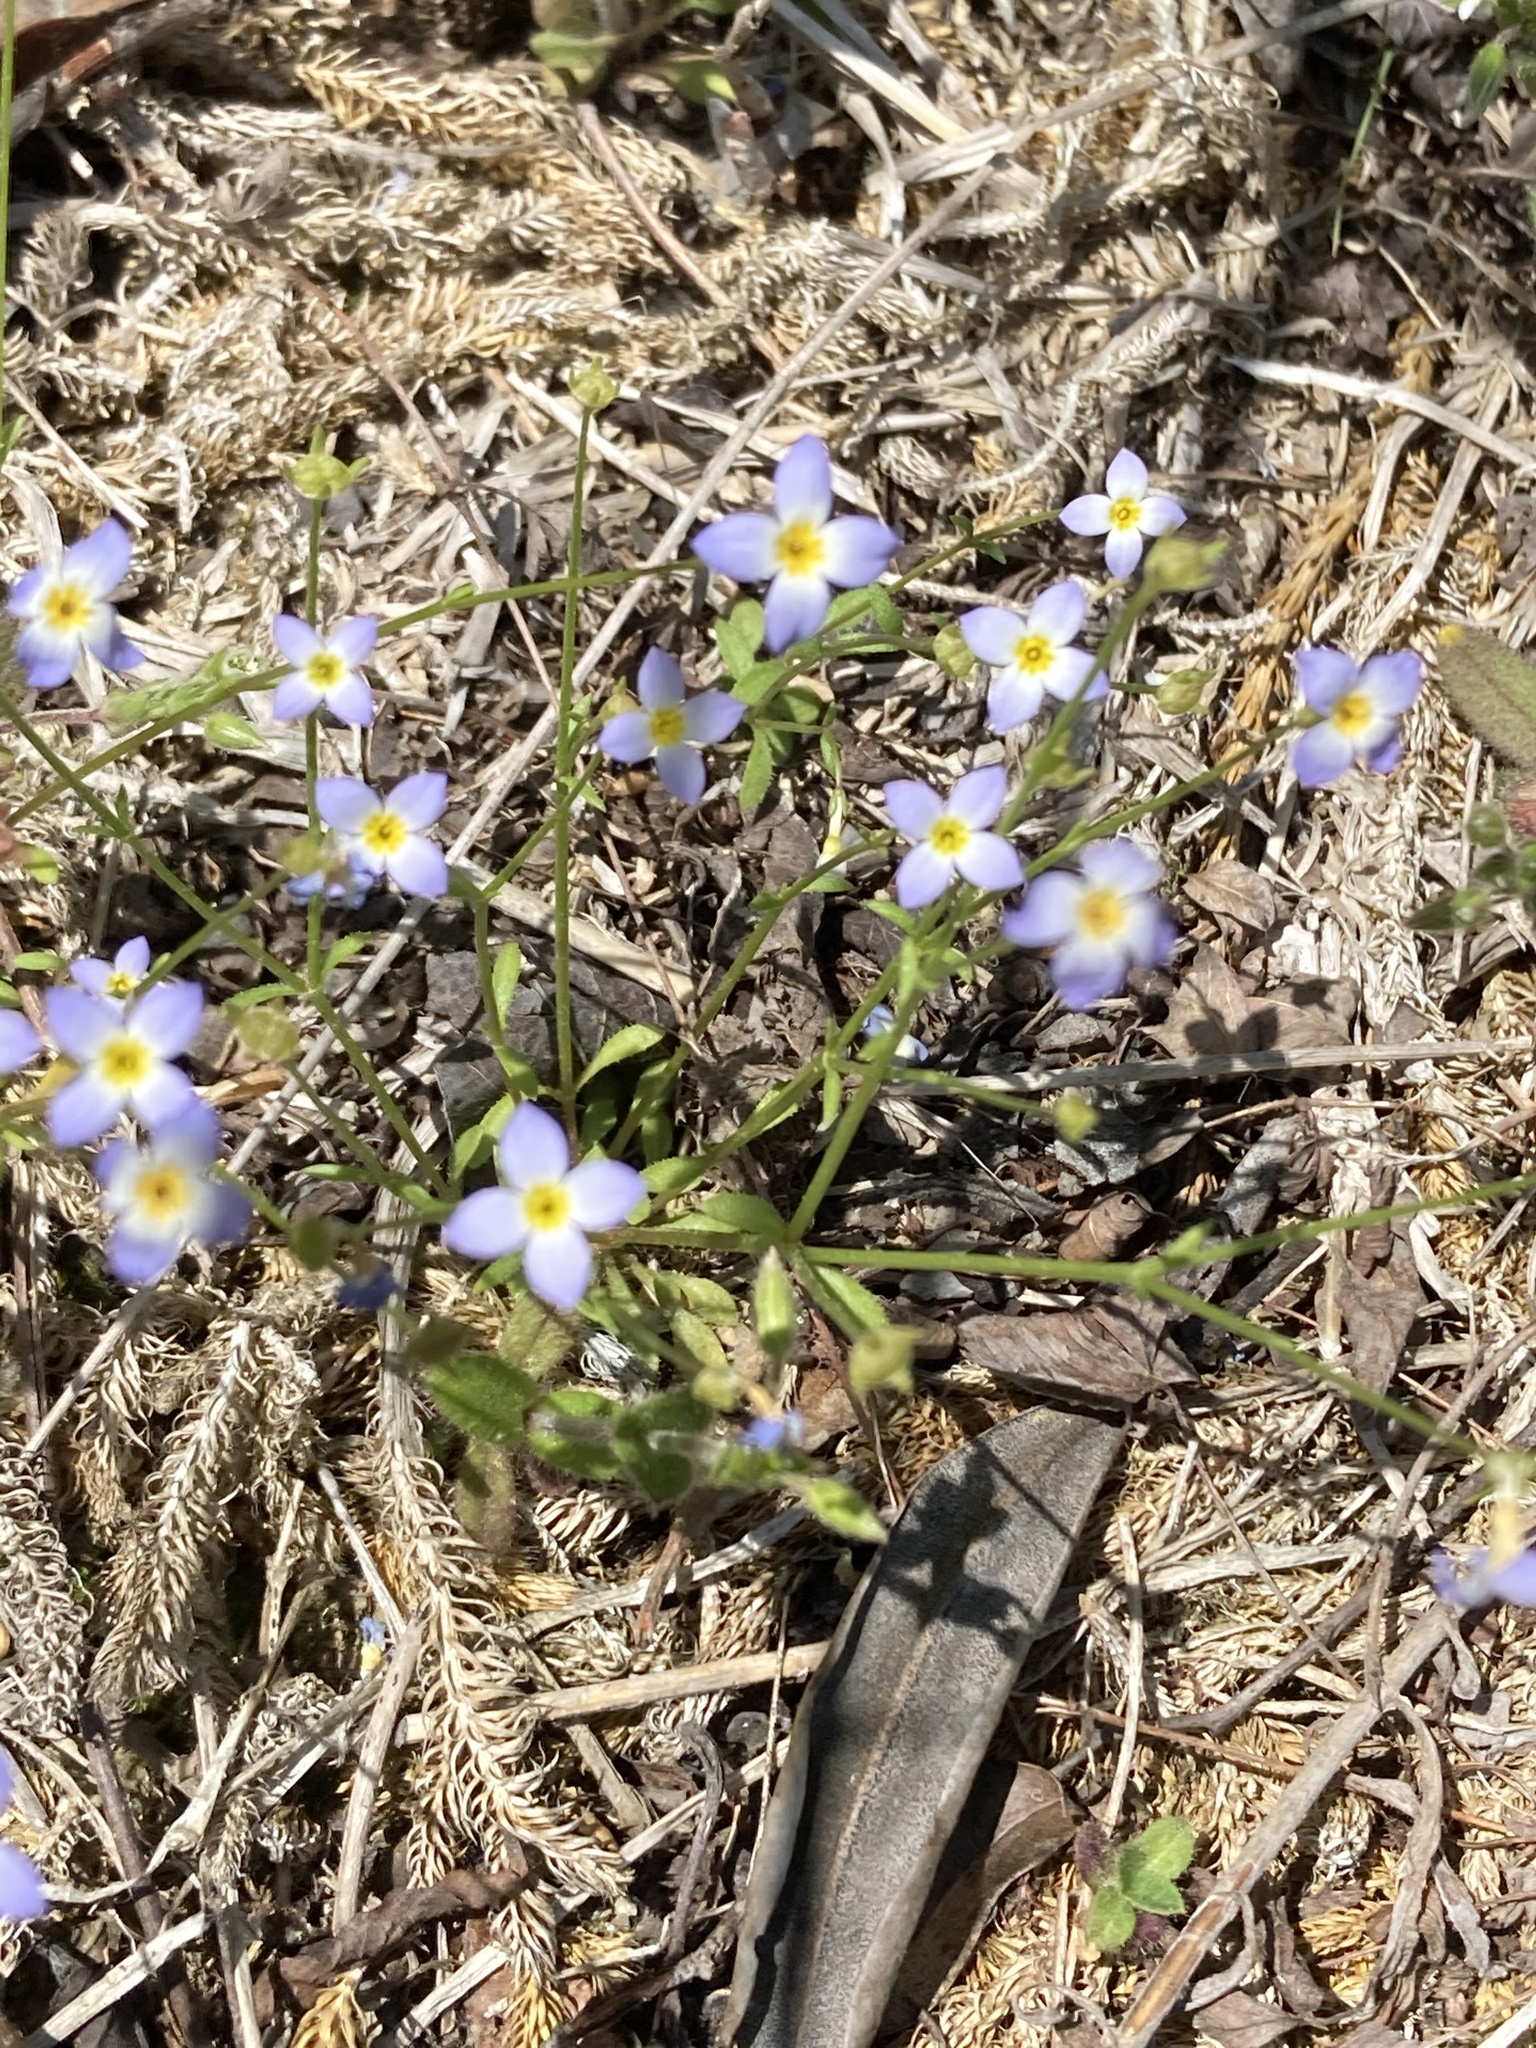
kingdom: Plantae
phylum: Tracheophyta
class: Magnoliopsida
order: Gentianales
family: Rubiaceae
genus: Houstonia
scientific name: Houstonia caerulea
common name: Bluets
